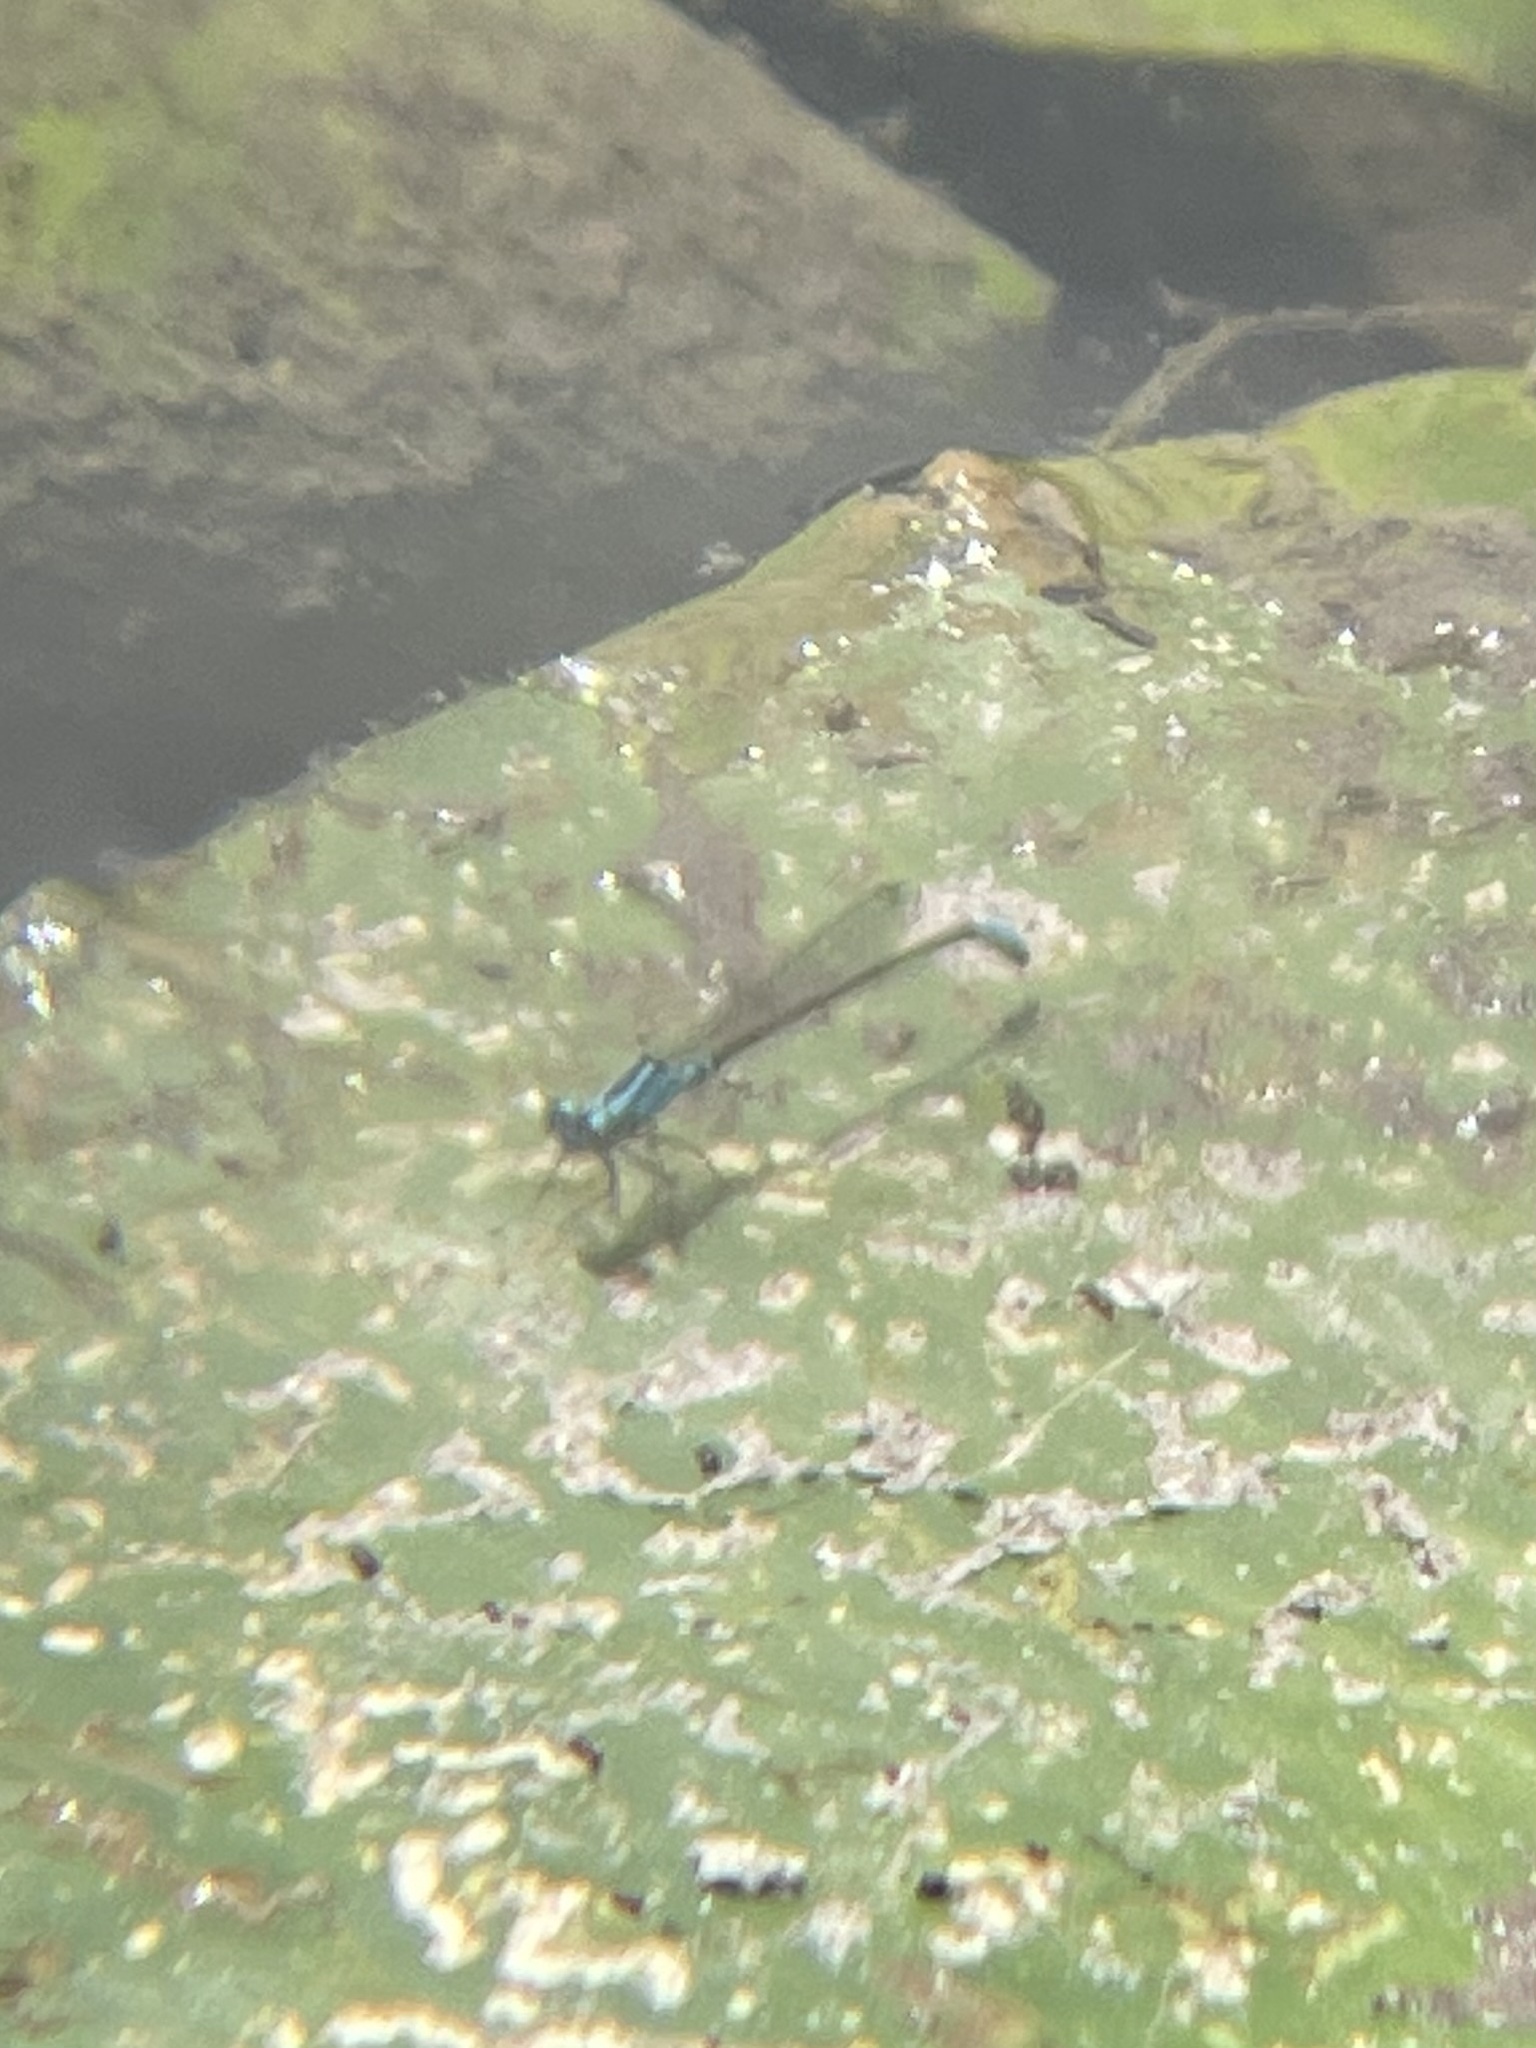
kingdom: Animalia
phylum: Arthropoda
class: Insecta
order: Odonata
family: Coenagrionidae
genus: Ischnura
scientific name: Ischnura kellicotti
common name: Lilypad forktail
